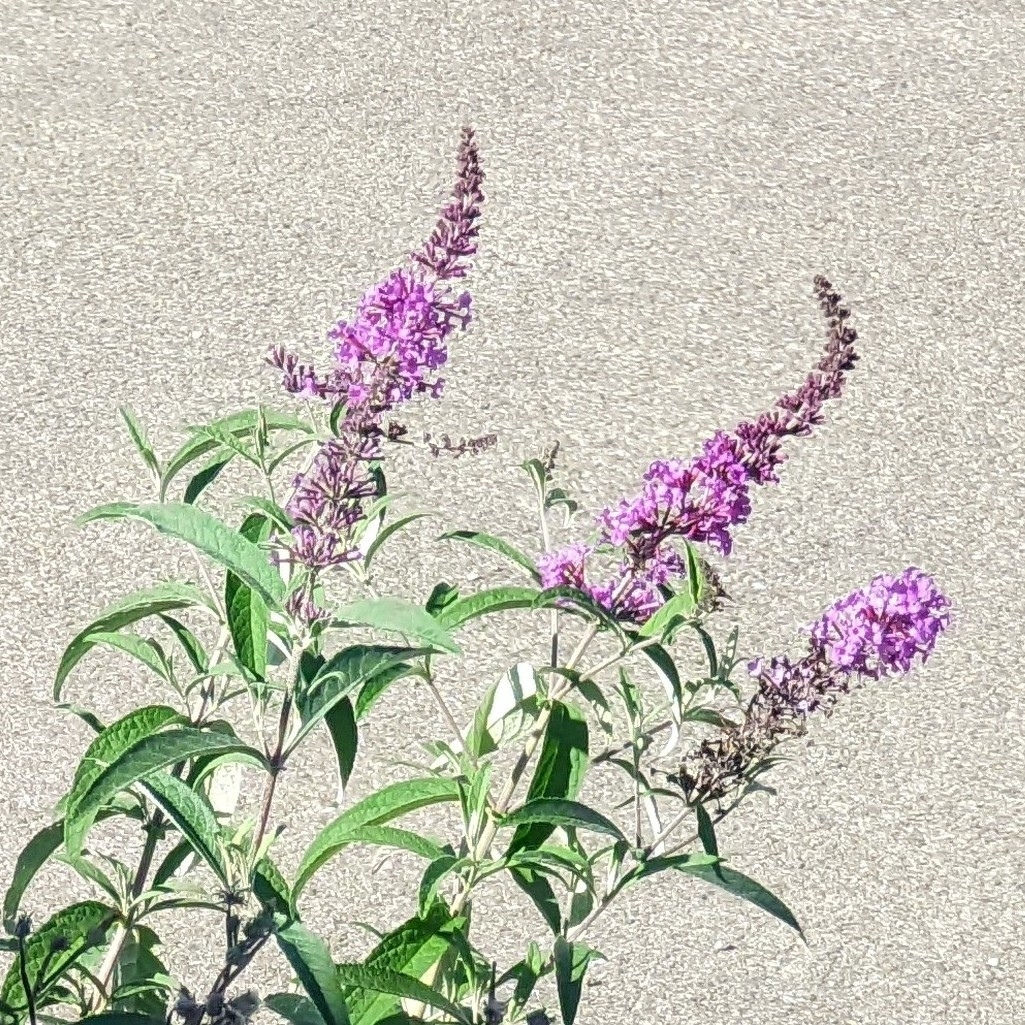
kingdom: Plantae
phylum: Tracheophyta
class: Magnoliopsida
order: Lamiales
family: Scrophulariaceae
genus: Buddleja
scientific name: Buddleja davidii
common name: Butterfly-bush
